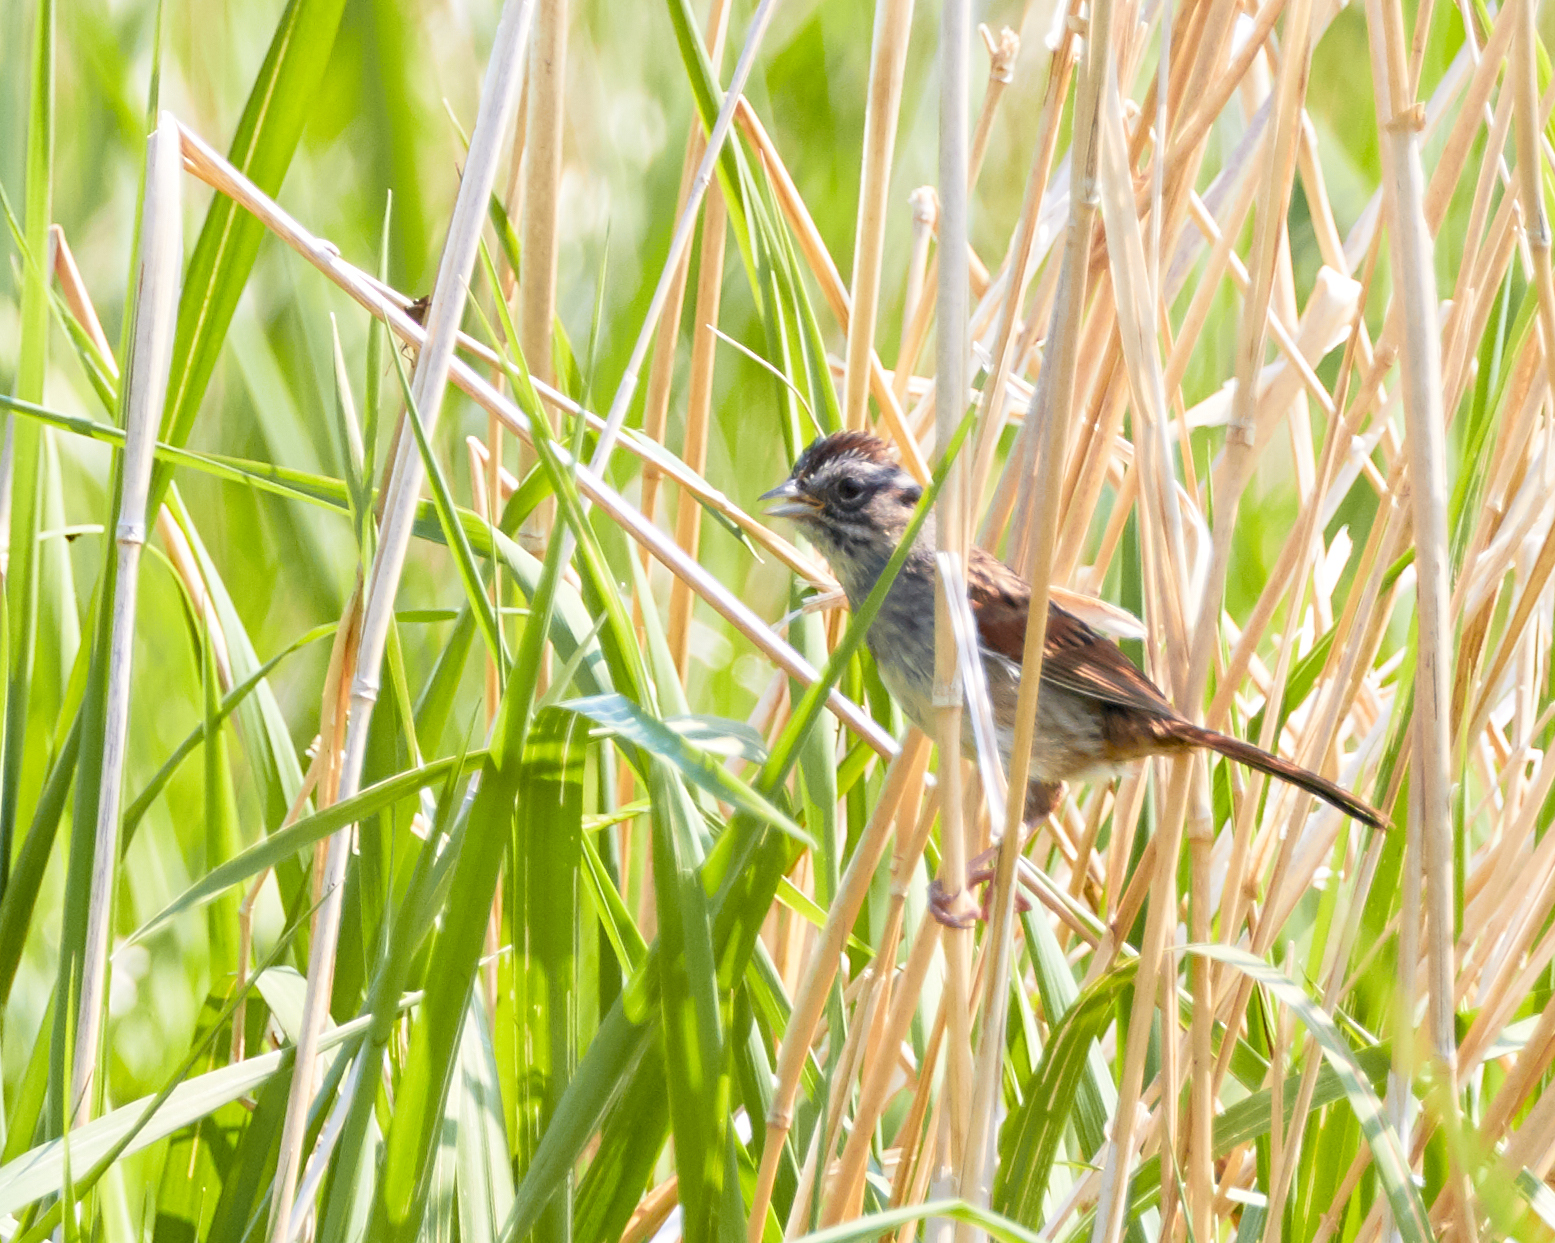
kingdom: Animalia
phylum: Chordata
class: Aves
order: Passeriformes
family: Passerellidae
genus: Melospiza
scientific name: Melospiza georgiana
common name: Swamp sparrow
